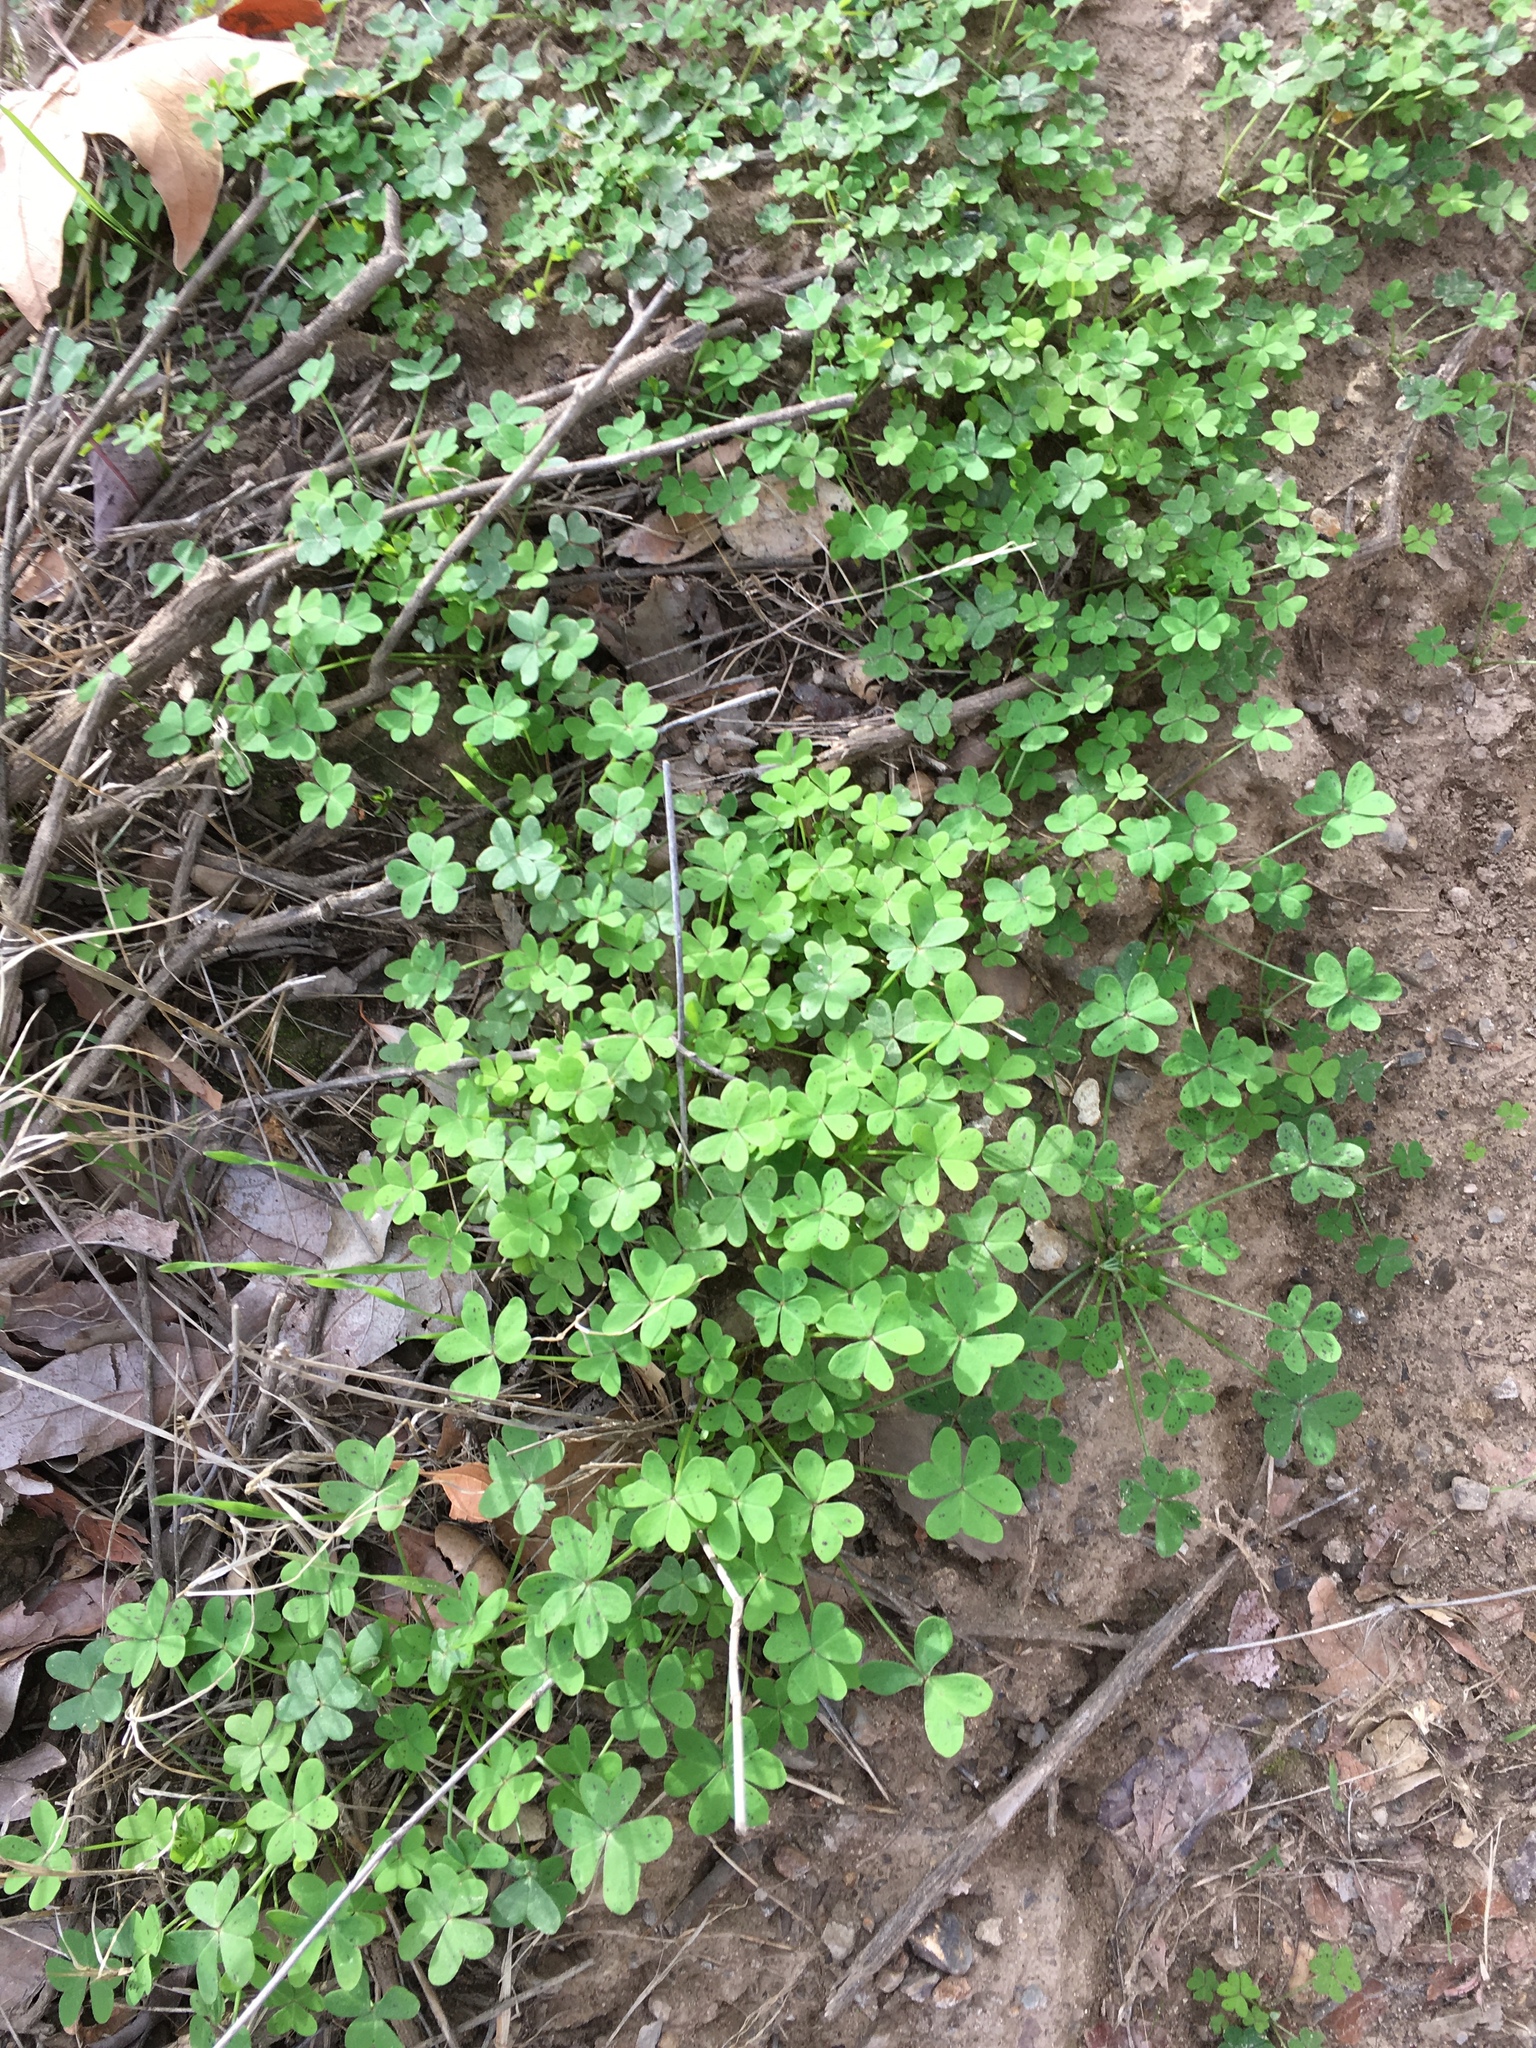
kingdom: Plantae
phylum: Tracheophyta
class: Magnoliopsida
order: Oxalidales
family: Oxalidaceae
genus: Oxalis
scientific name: Oxalis pes-caprae
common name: Bermuda-buttercup
